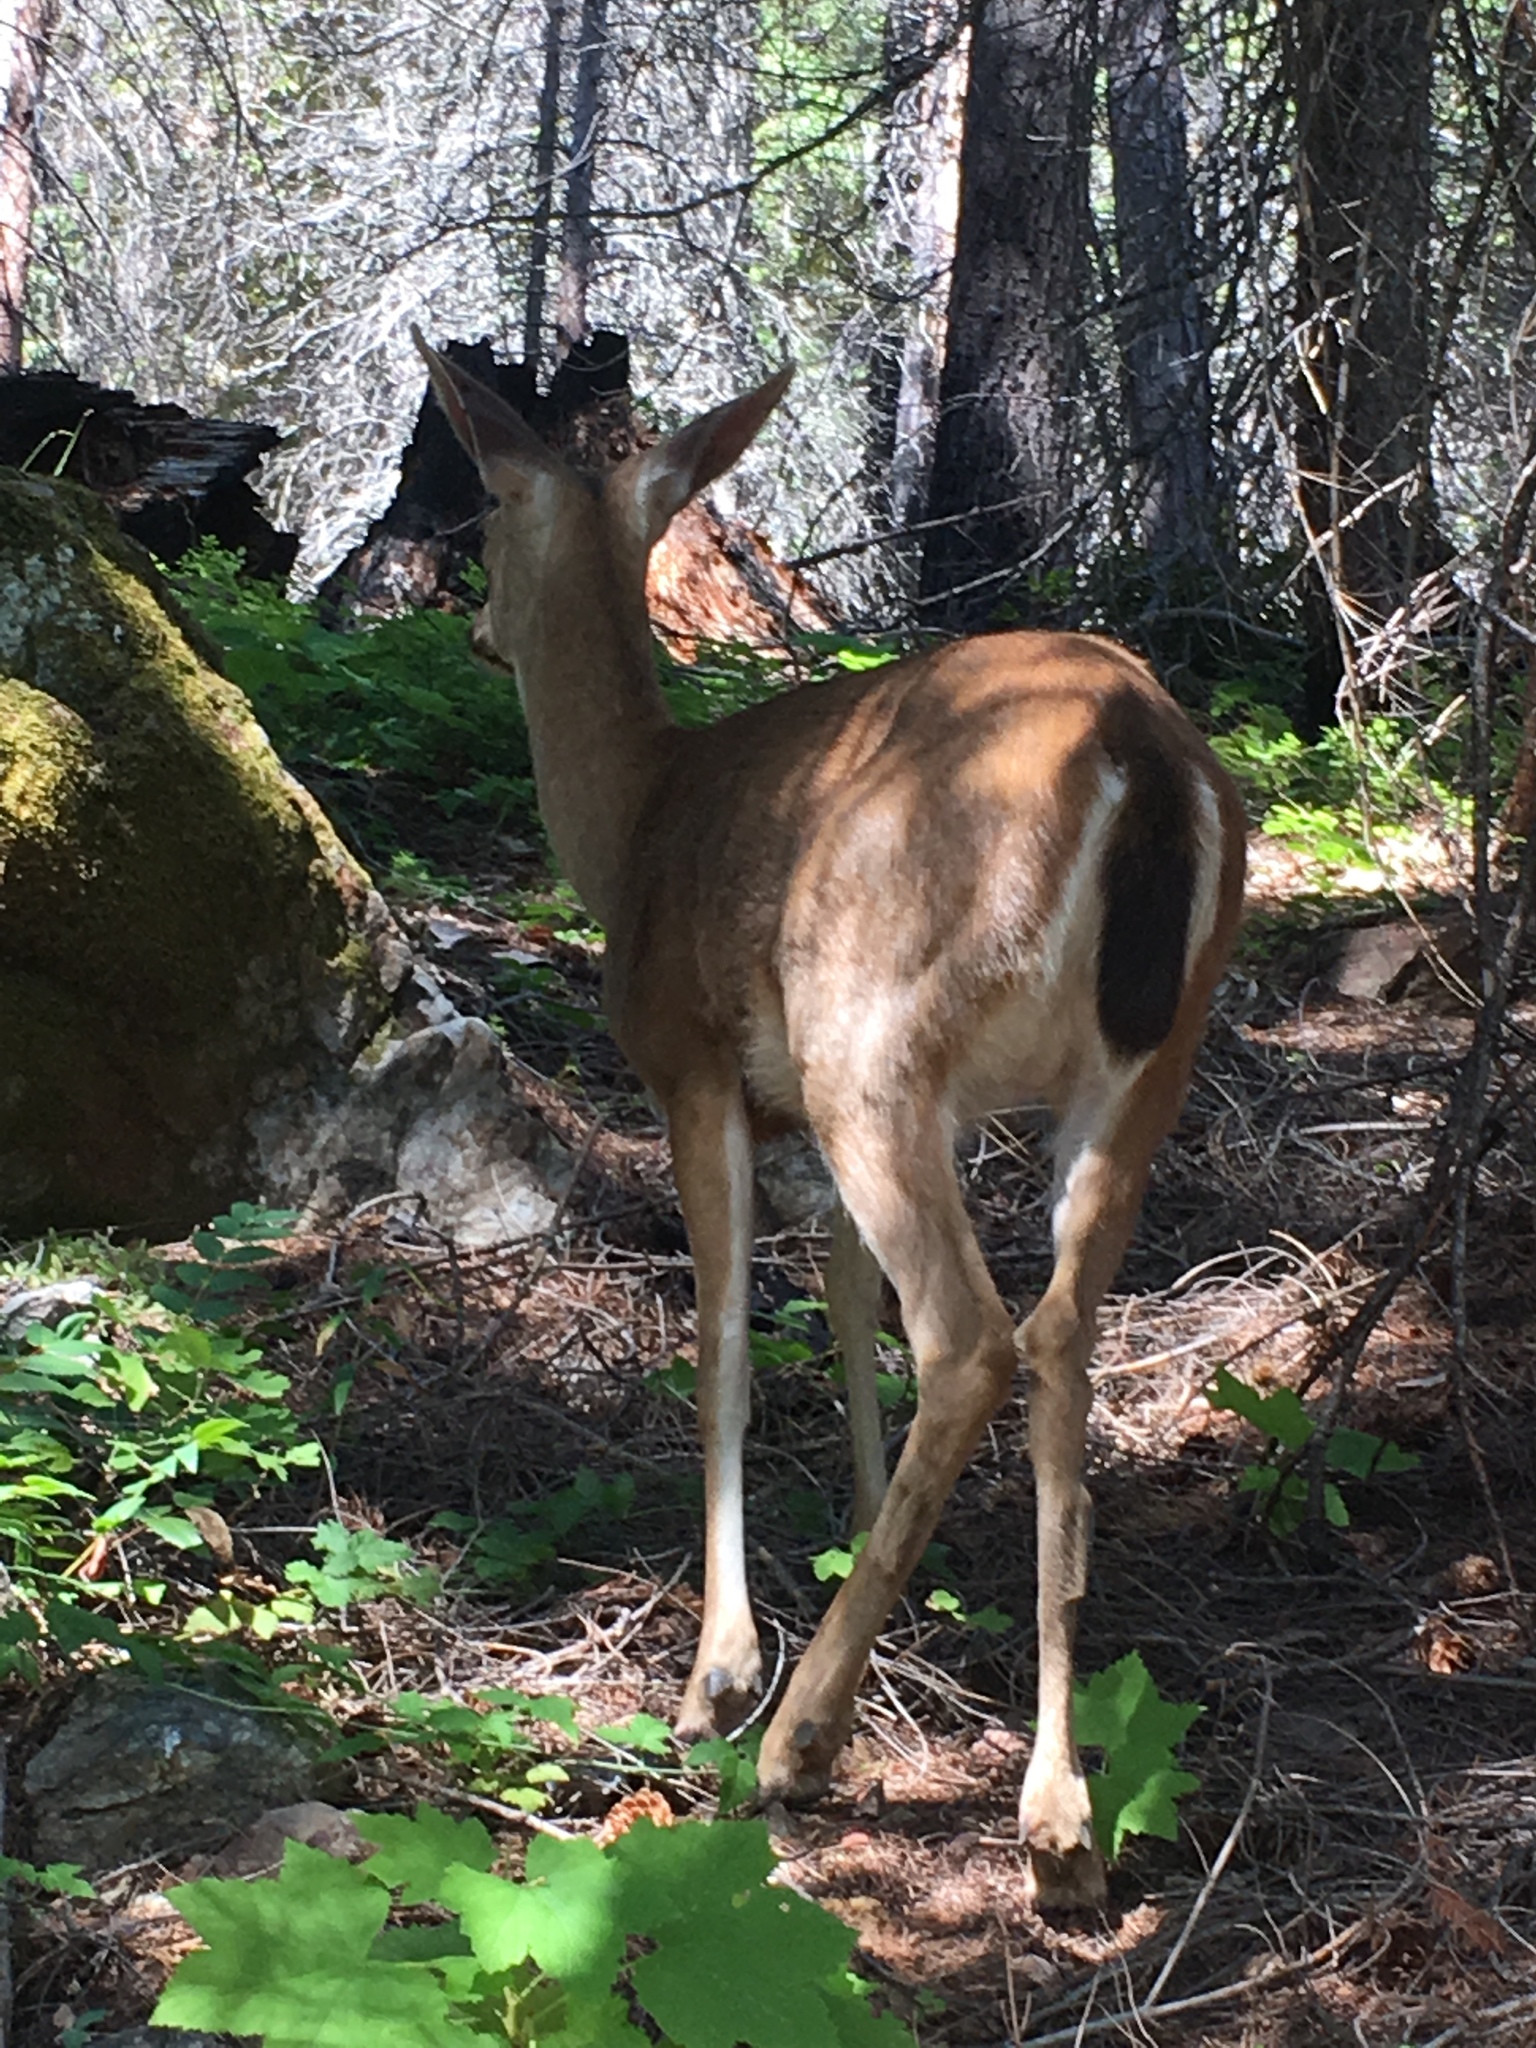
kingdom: Animalia
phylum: Chordata
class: Mammalia
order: Artiodactyla
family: Cervidae
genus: Odocoileus
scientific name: Odocoileus hemionus
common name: Mule deer
